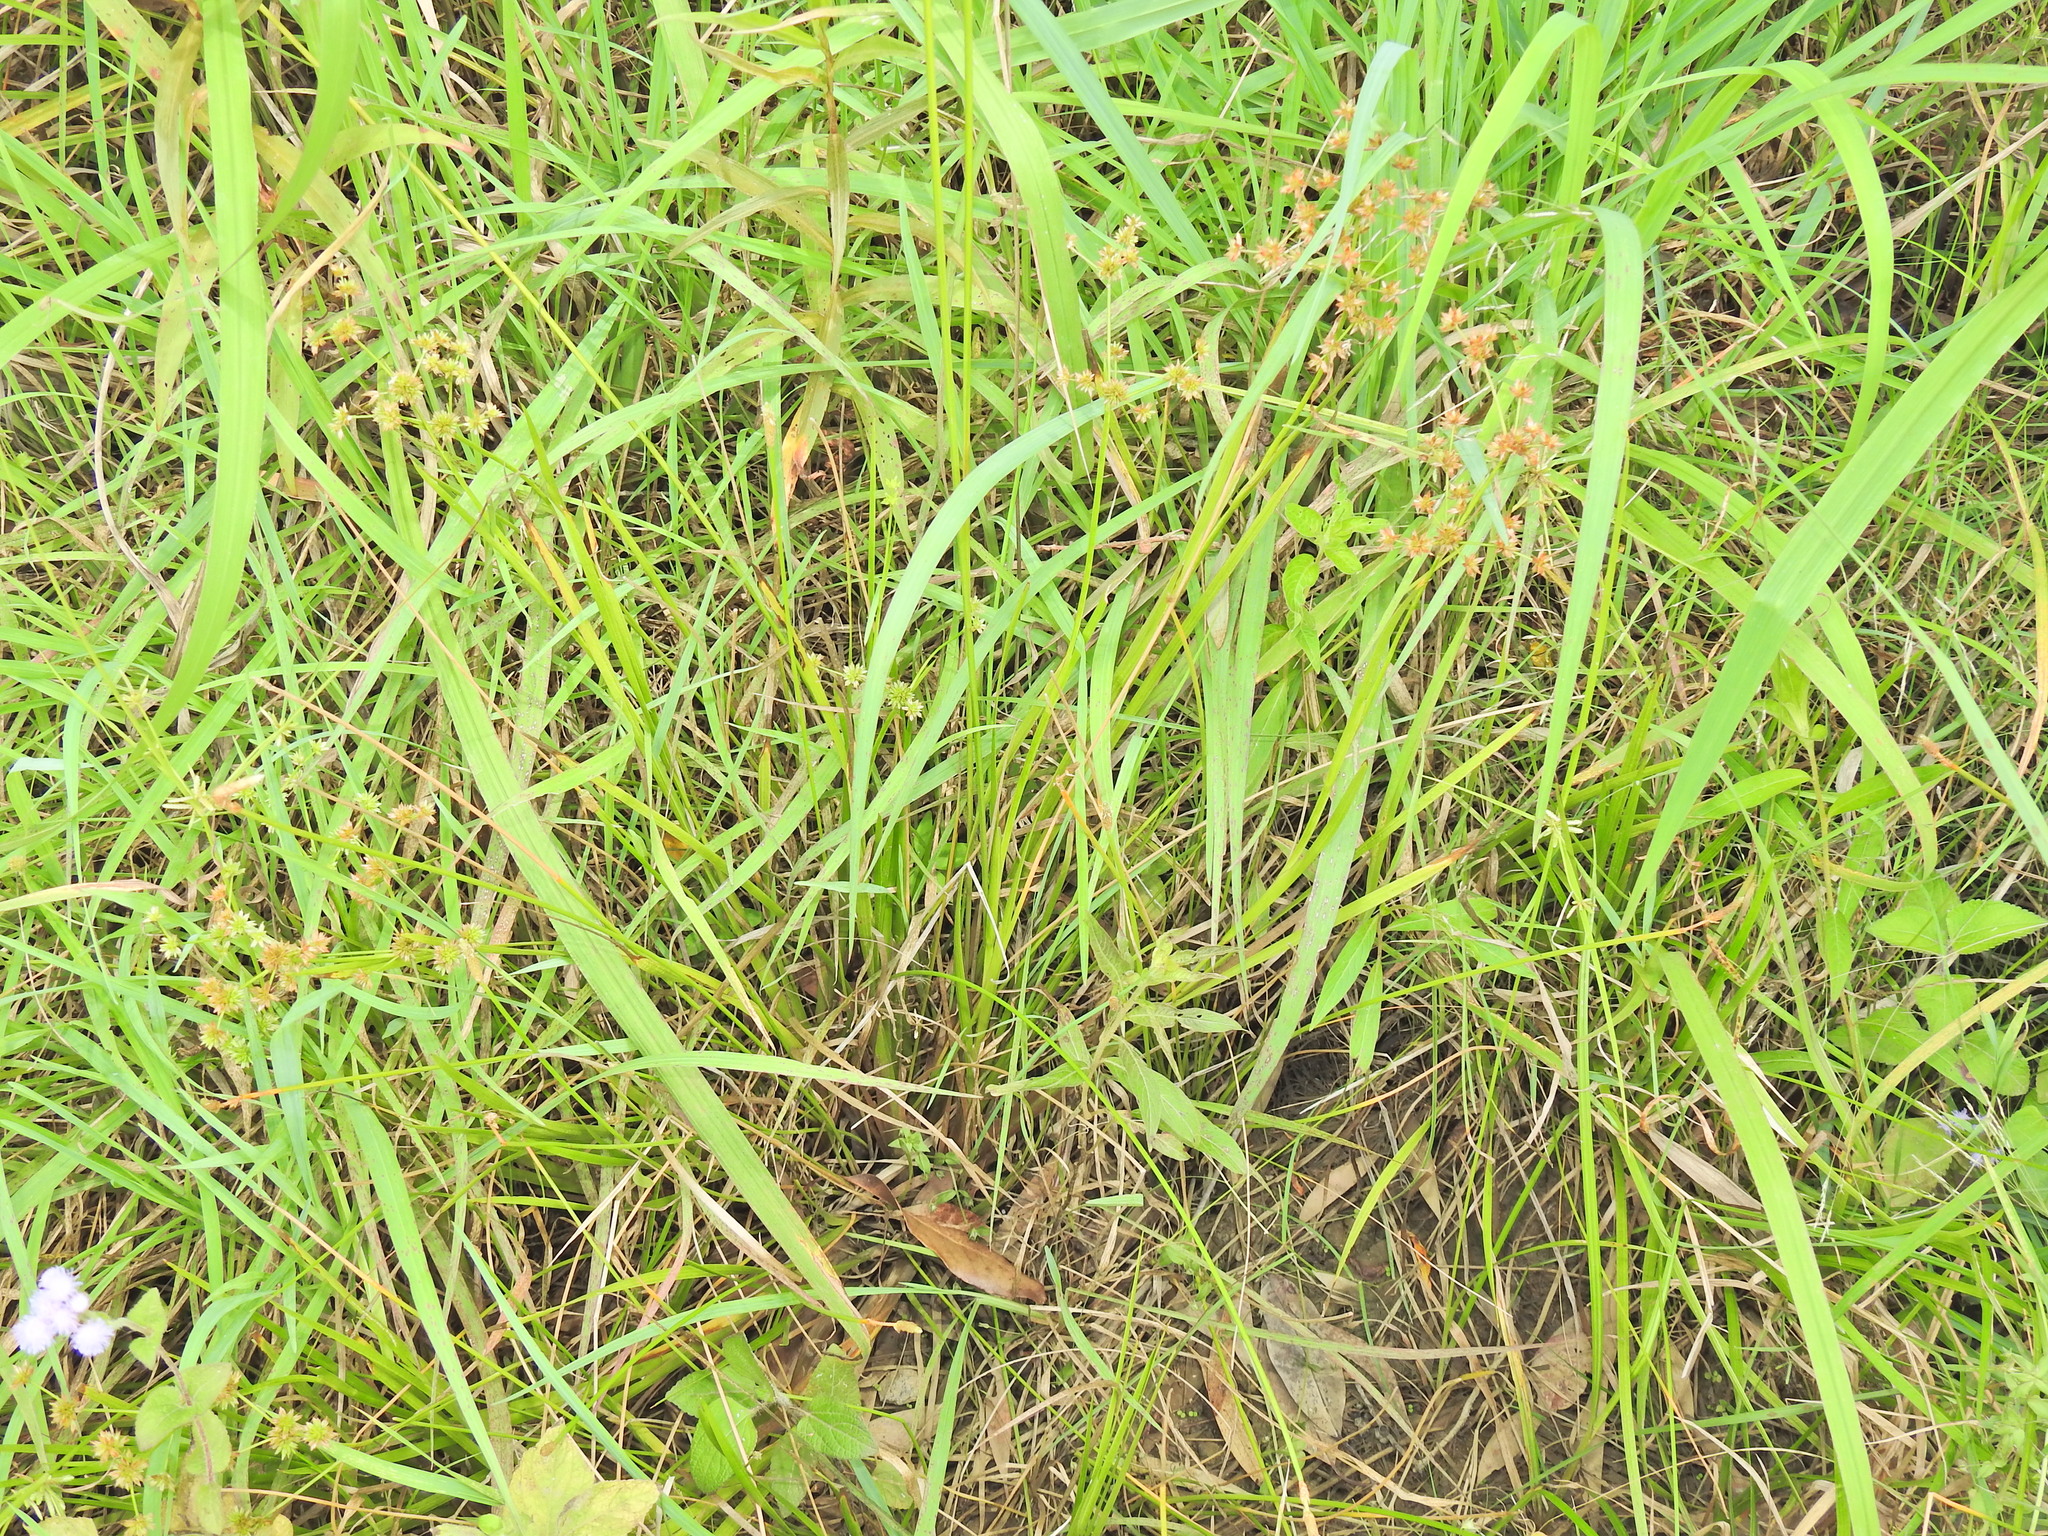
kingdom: Plantae
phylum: Tracheophyta
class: Liliopsida
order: Poales
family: Juncaceae
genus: Juncus
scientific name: Juncus prismatocarpus
